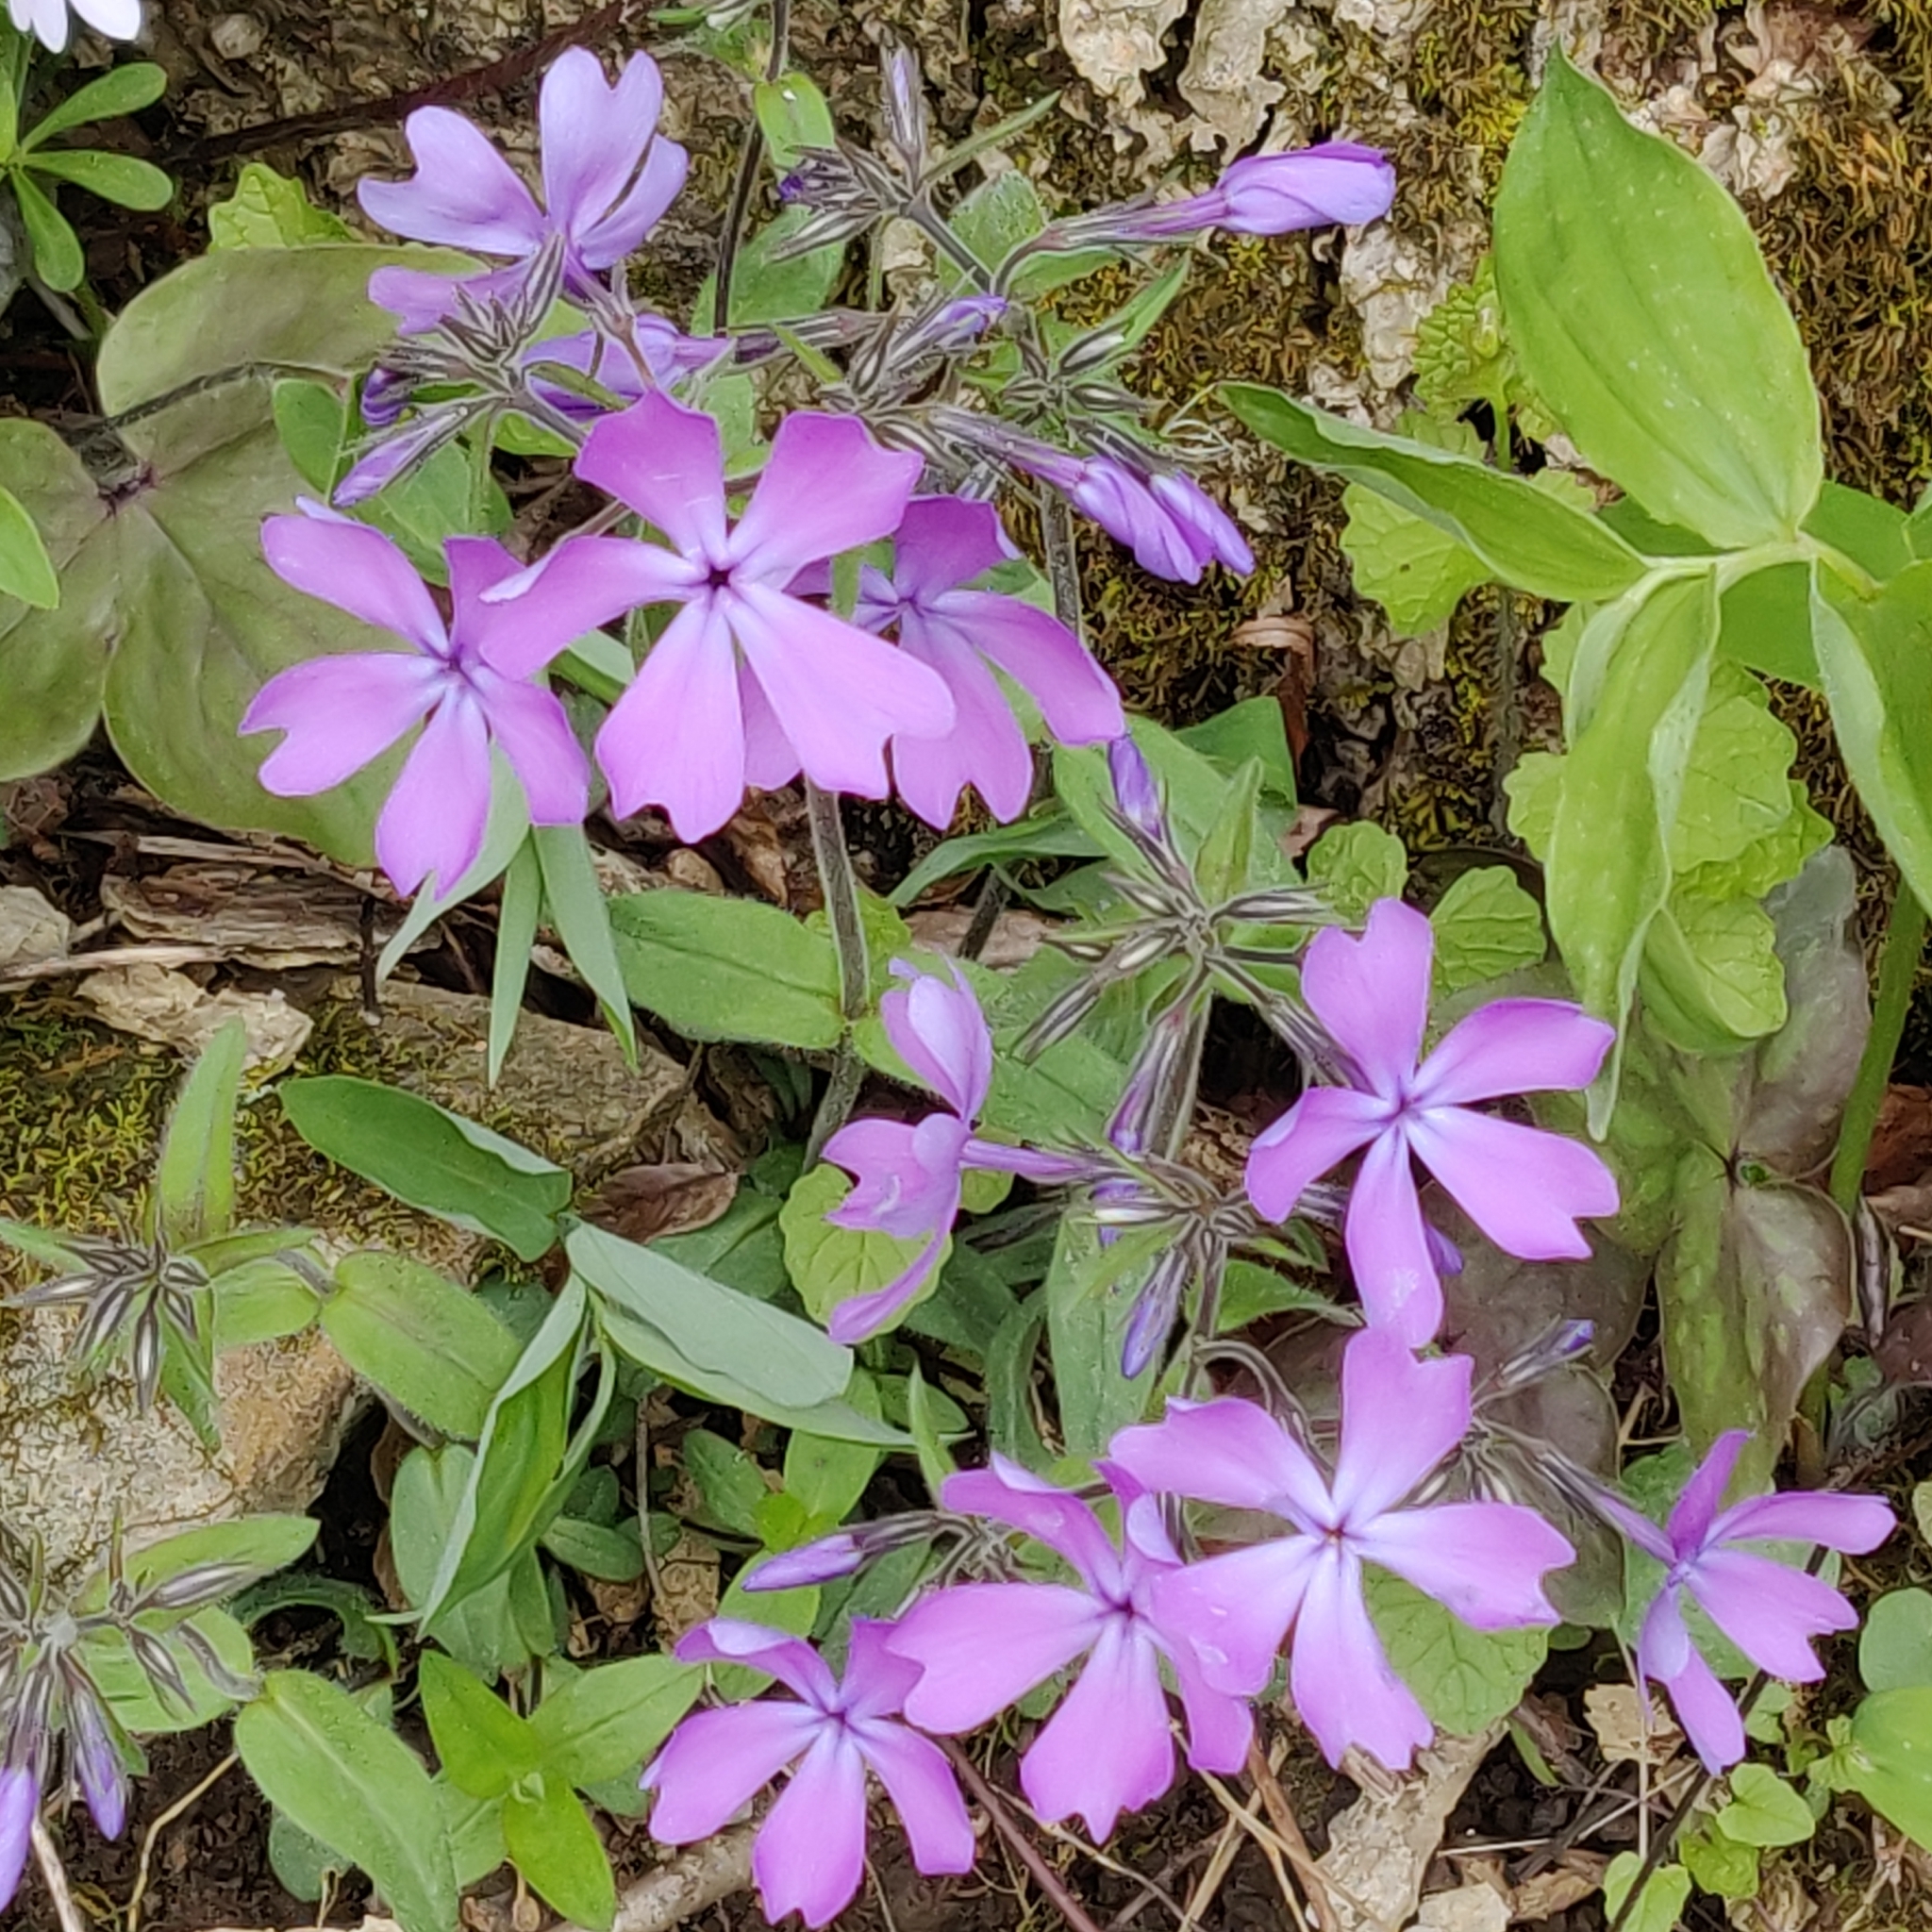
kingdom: Plantae
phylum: Tracheophyta
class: Magnoliopsida
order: Ericales
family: Polemoniaceae
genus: Phlox
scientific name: Phlox divaricata
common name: Blue phlox
